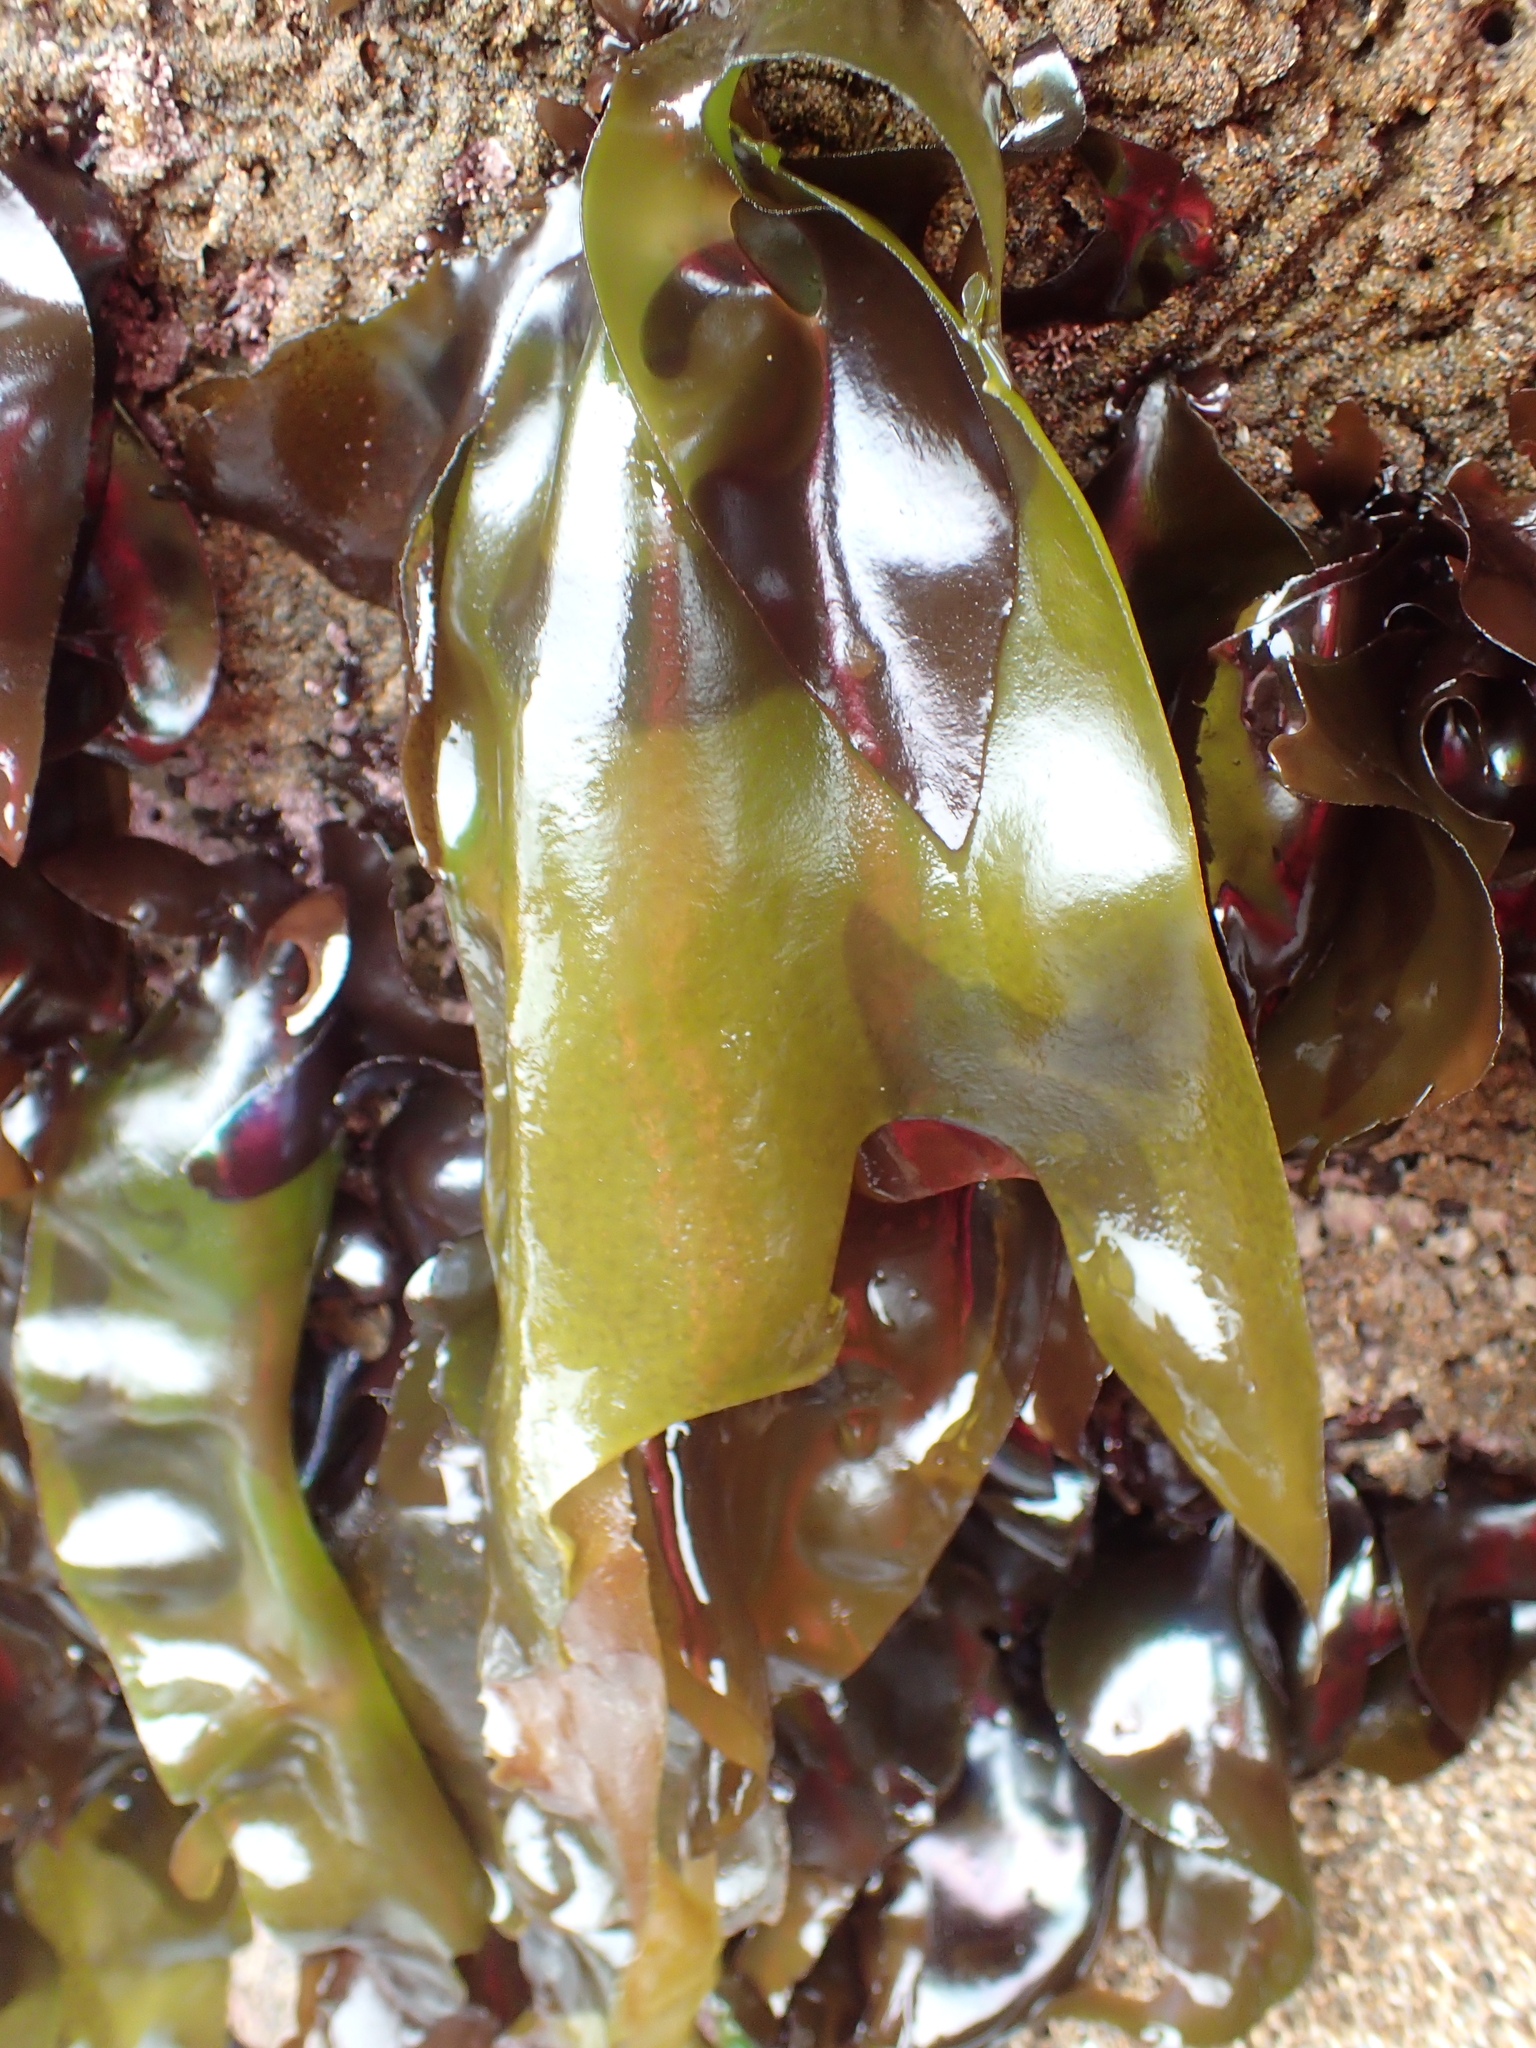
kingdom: Plantae
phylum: Rhodophyta
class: Florideophyceae
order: Gigartinales
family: Gigartinaceae
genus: Mazzaella
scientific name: Mazzaella flaccida
